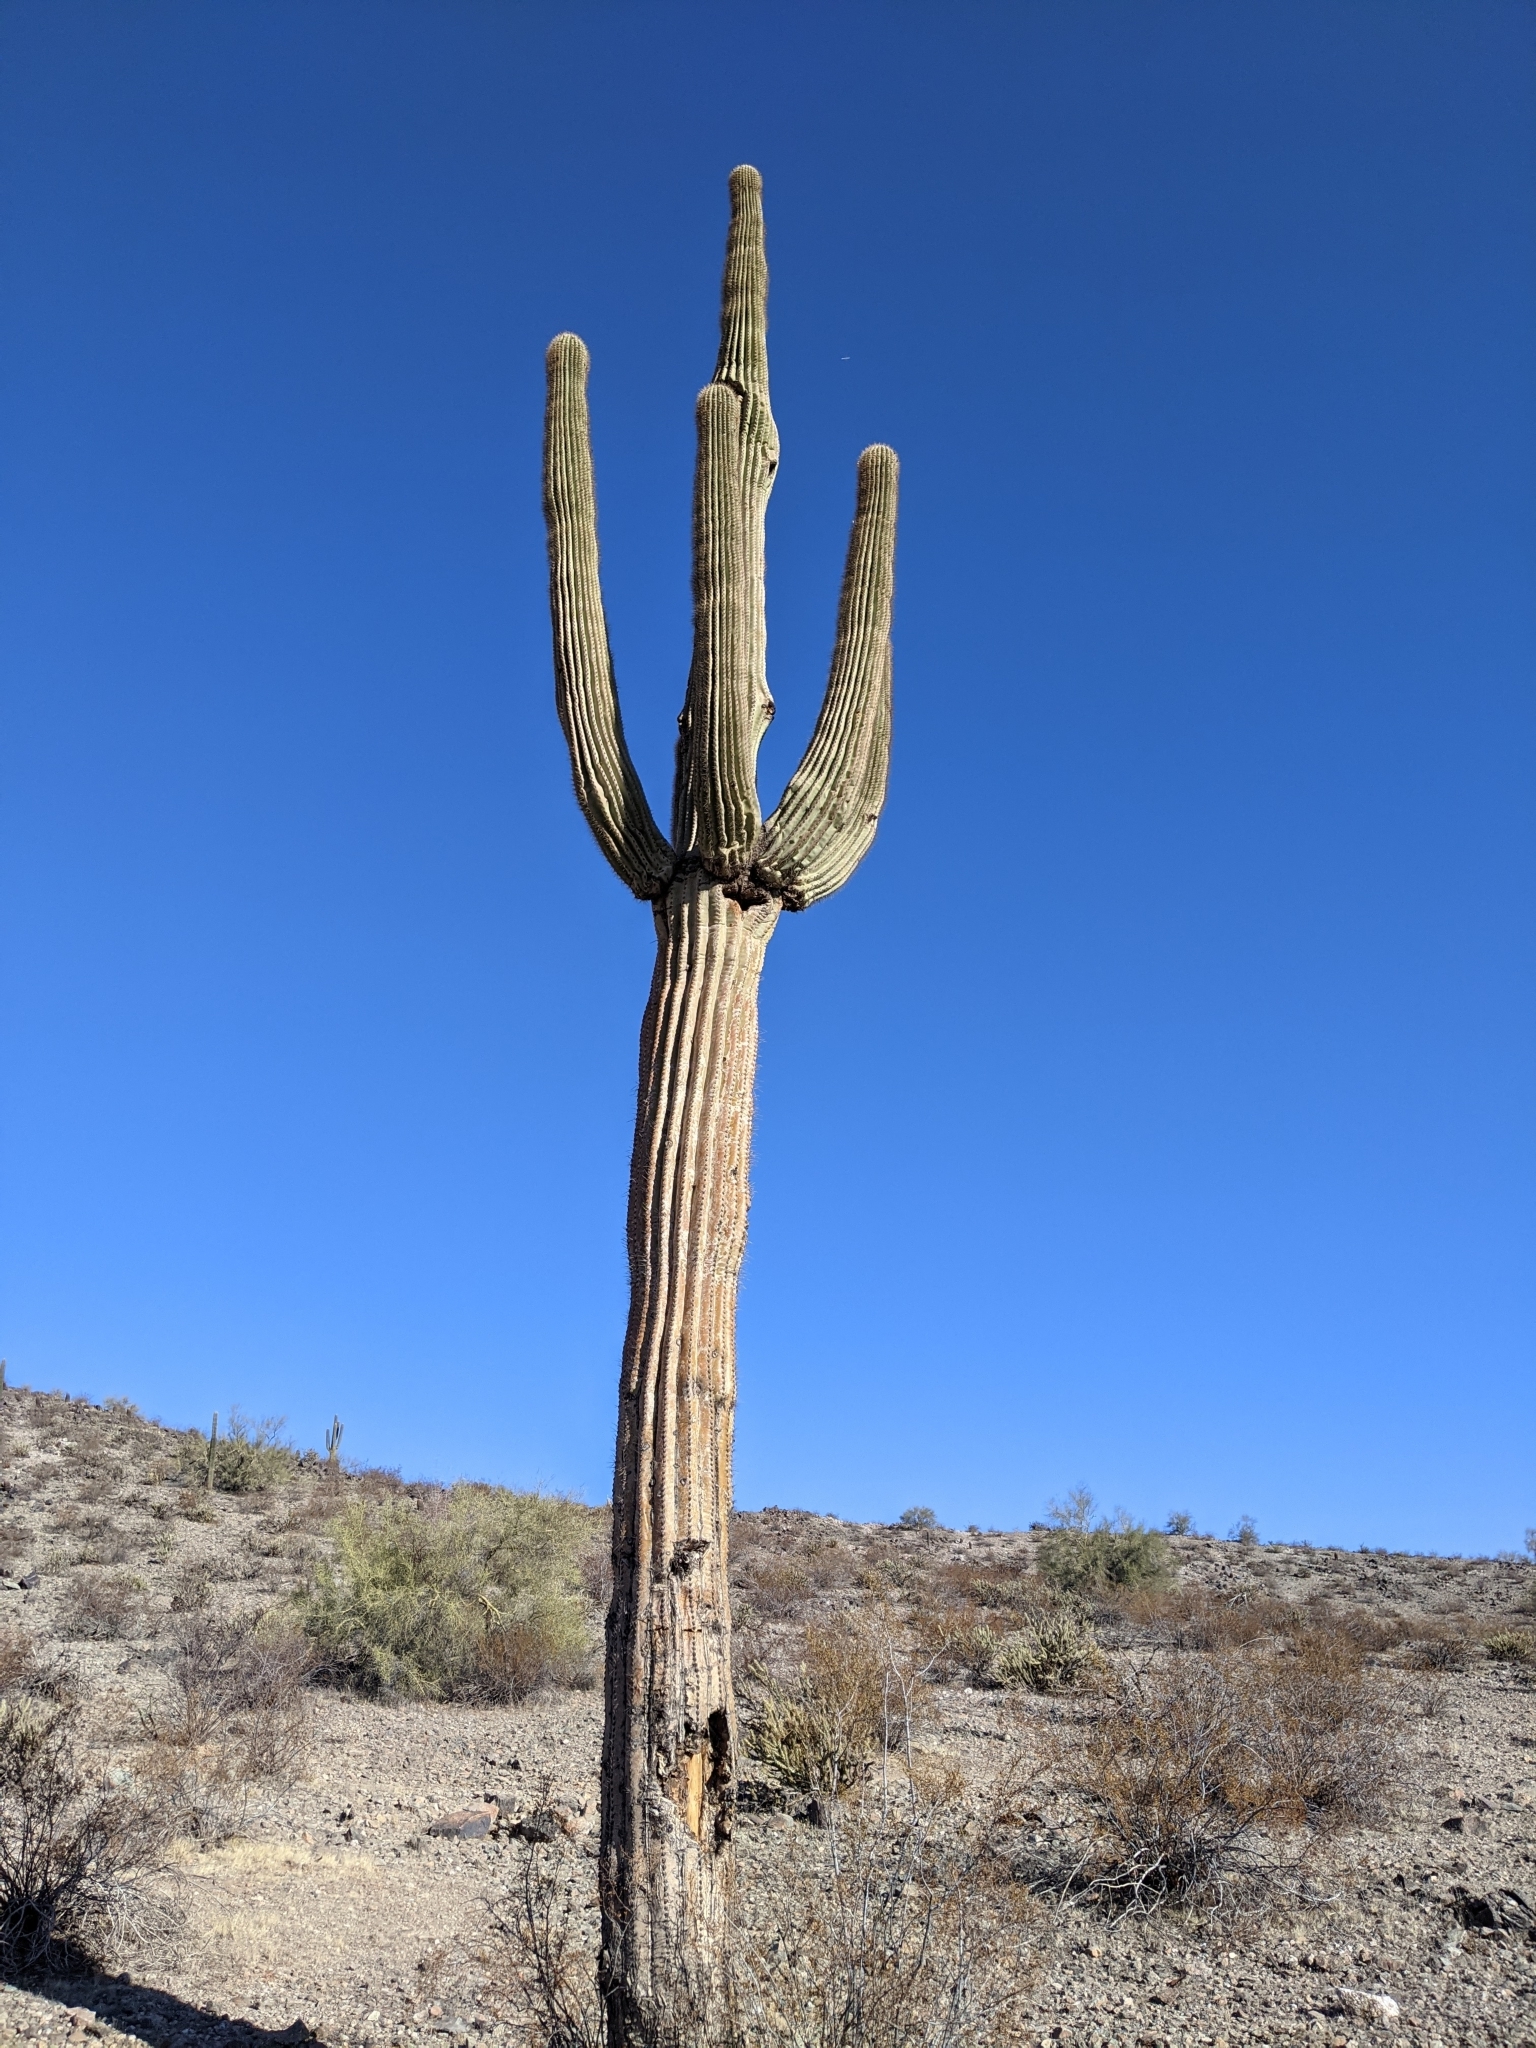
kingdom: Plantae
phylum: Tracheophyta
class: Magnoliopsida
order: Caryophyllales
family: Cactaceae
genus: Carnegiea
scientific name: Carnegiea gigantea
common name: Saguaro
